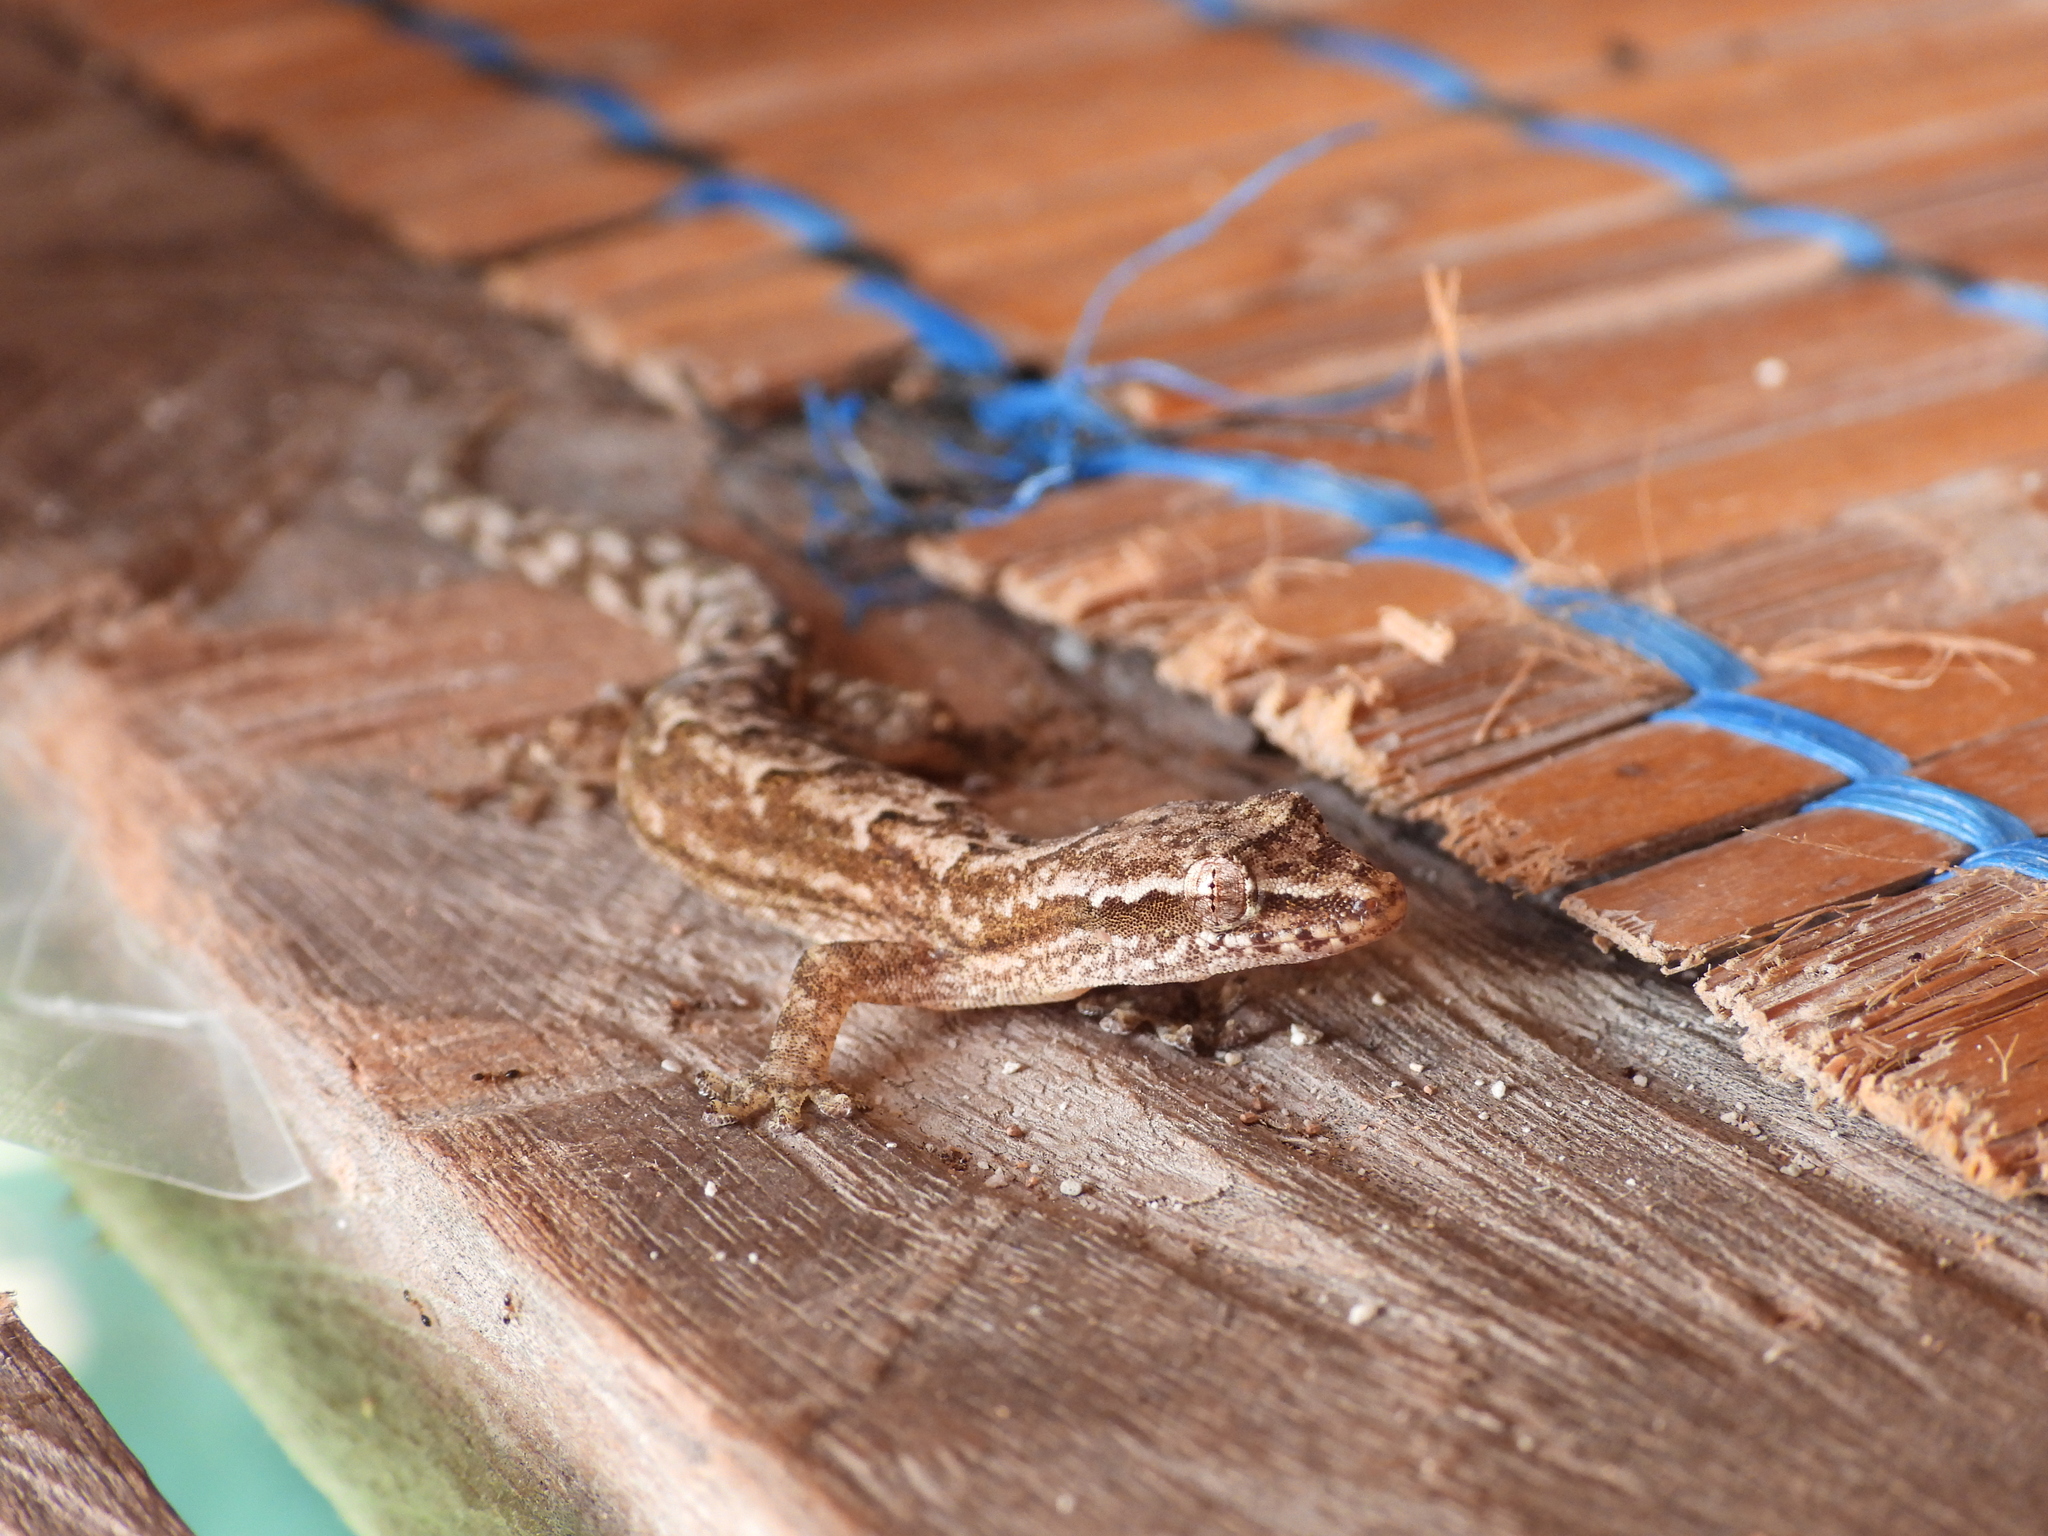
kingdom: Animalia
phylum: Chordata
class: Squamata
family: Gekkonidae
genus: Lepidodactylus
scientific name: Lepidodactylus lugubris
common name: Mourning gecko
